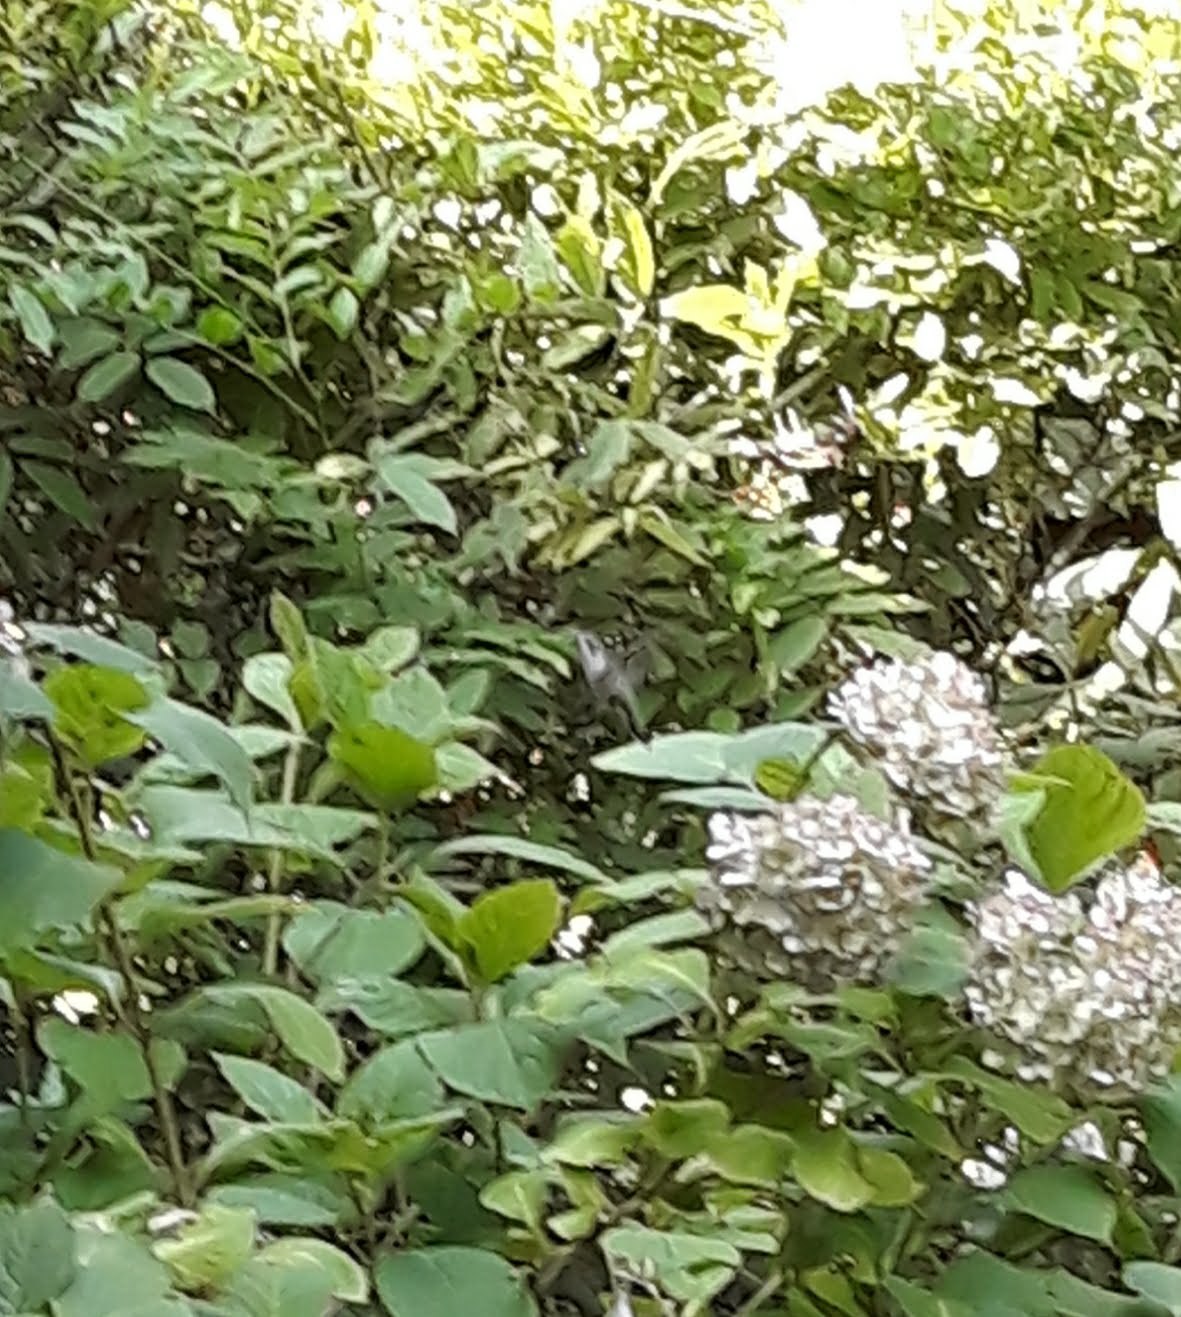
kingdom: Animalia
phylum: Chordata
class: Aves
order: Apodiformes
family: Trochilidae
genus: Archilochus
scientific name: Archilochus colubris
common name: Ruby-throated hummingbird
